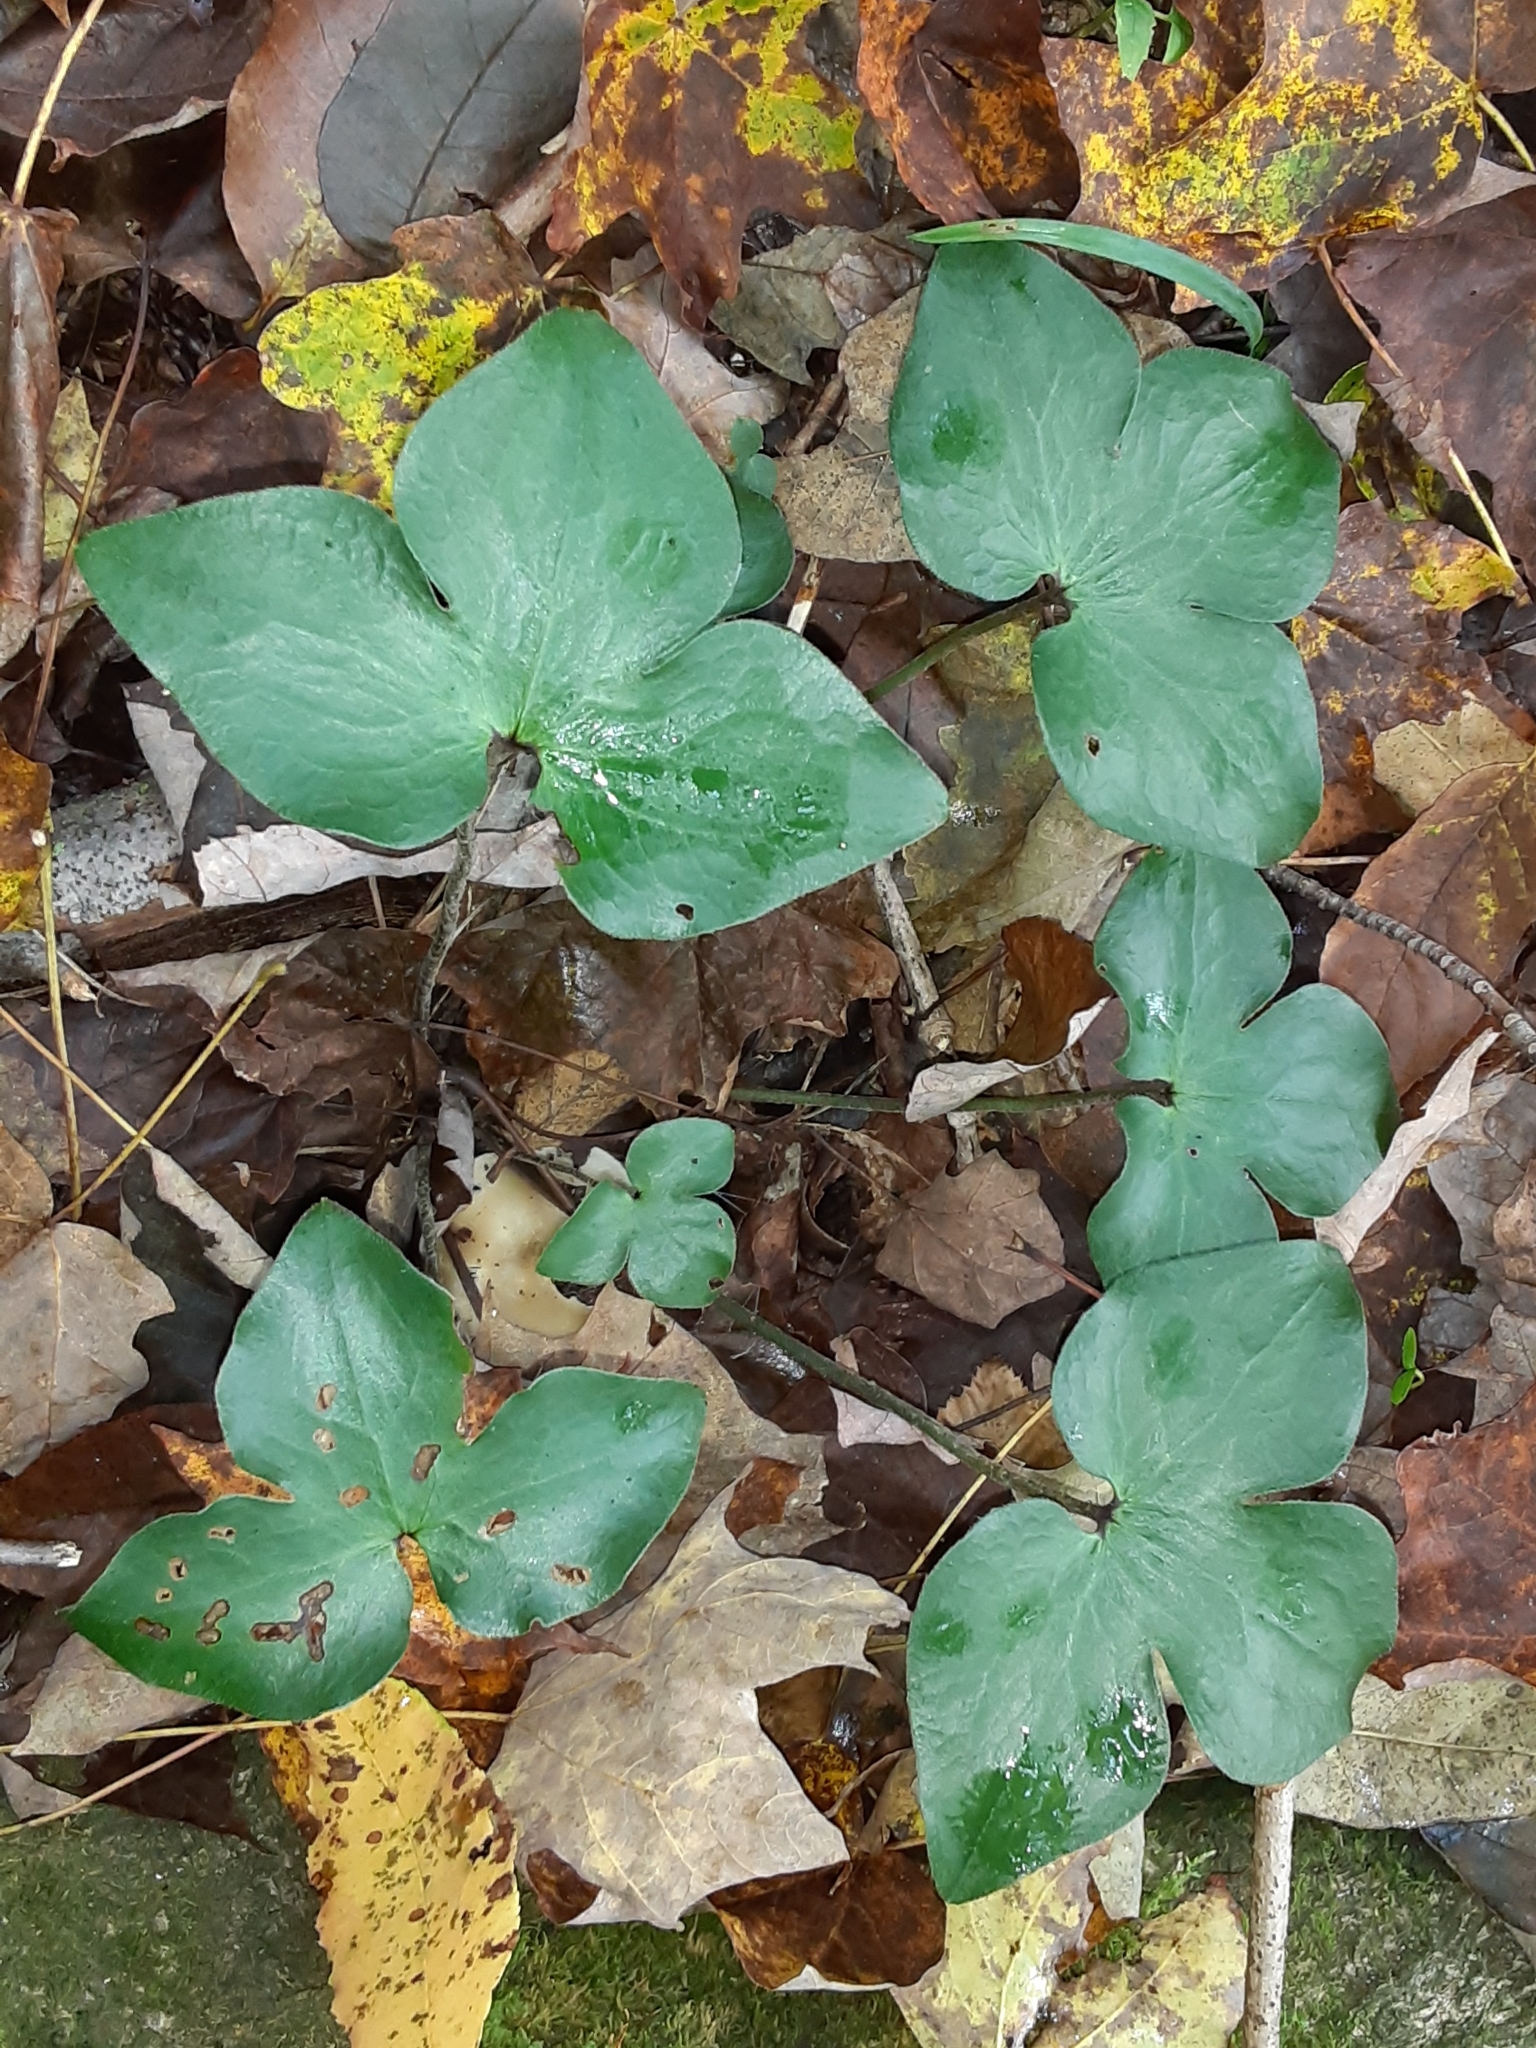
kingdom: Plantae
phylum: Tracheophyta
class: Magnoliopsida
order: Ranunculales
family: Ranunculaceae
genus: Hepatica
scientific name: Hepatica acutiloba
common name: Sharp-lobed hepatica
